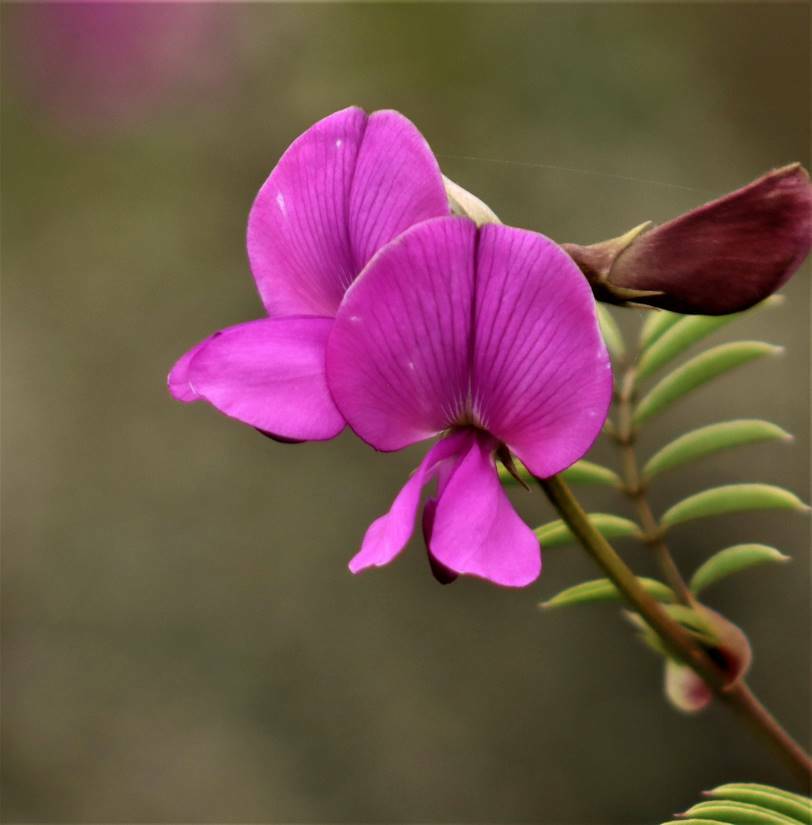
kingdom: Plantae
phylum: Tracheophyta
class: Magnoliopsida
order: Fabales
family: Fabaceae
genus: Tephrosia
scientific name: Tephrosia capensis
